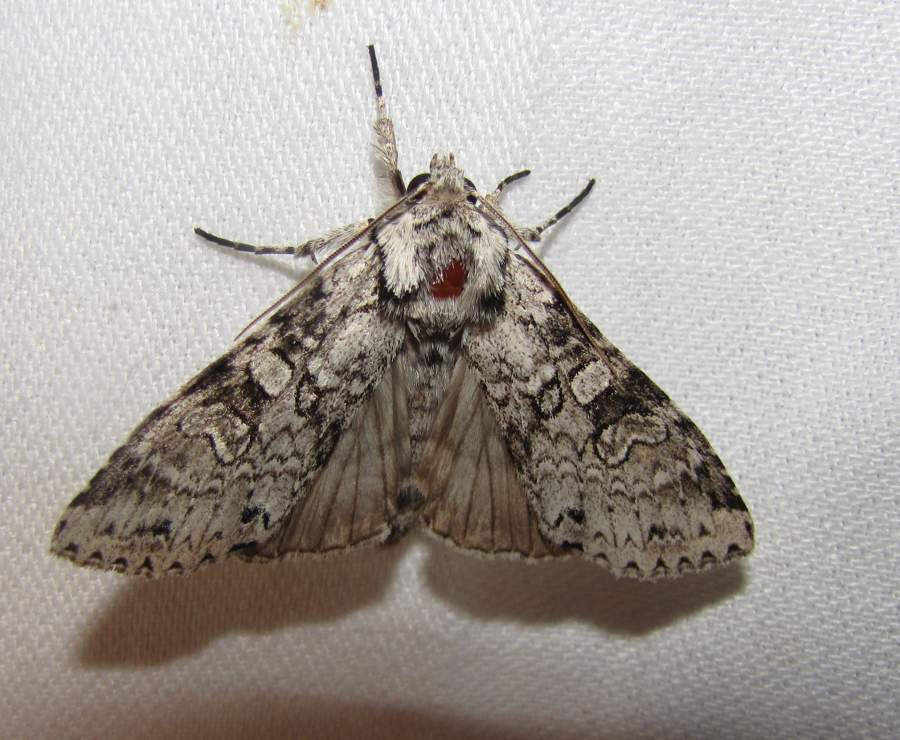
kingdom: Animalia
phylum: Arthropoda
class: Insecta
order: Lepidoptera
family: Noctuidae
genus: Polia
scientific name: Polia nimbosa
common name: Stormy arches
